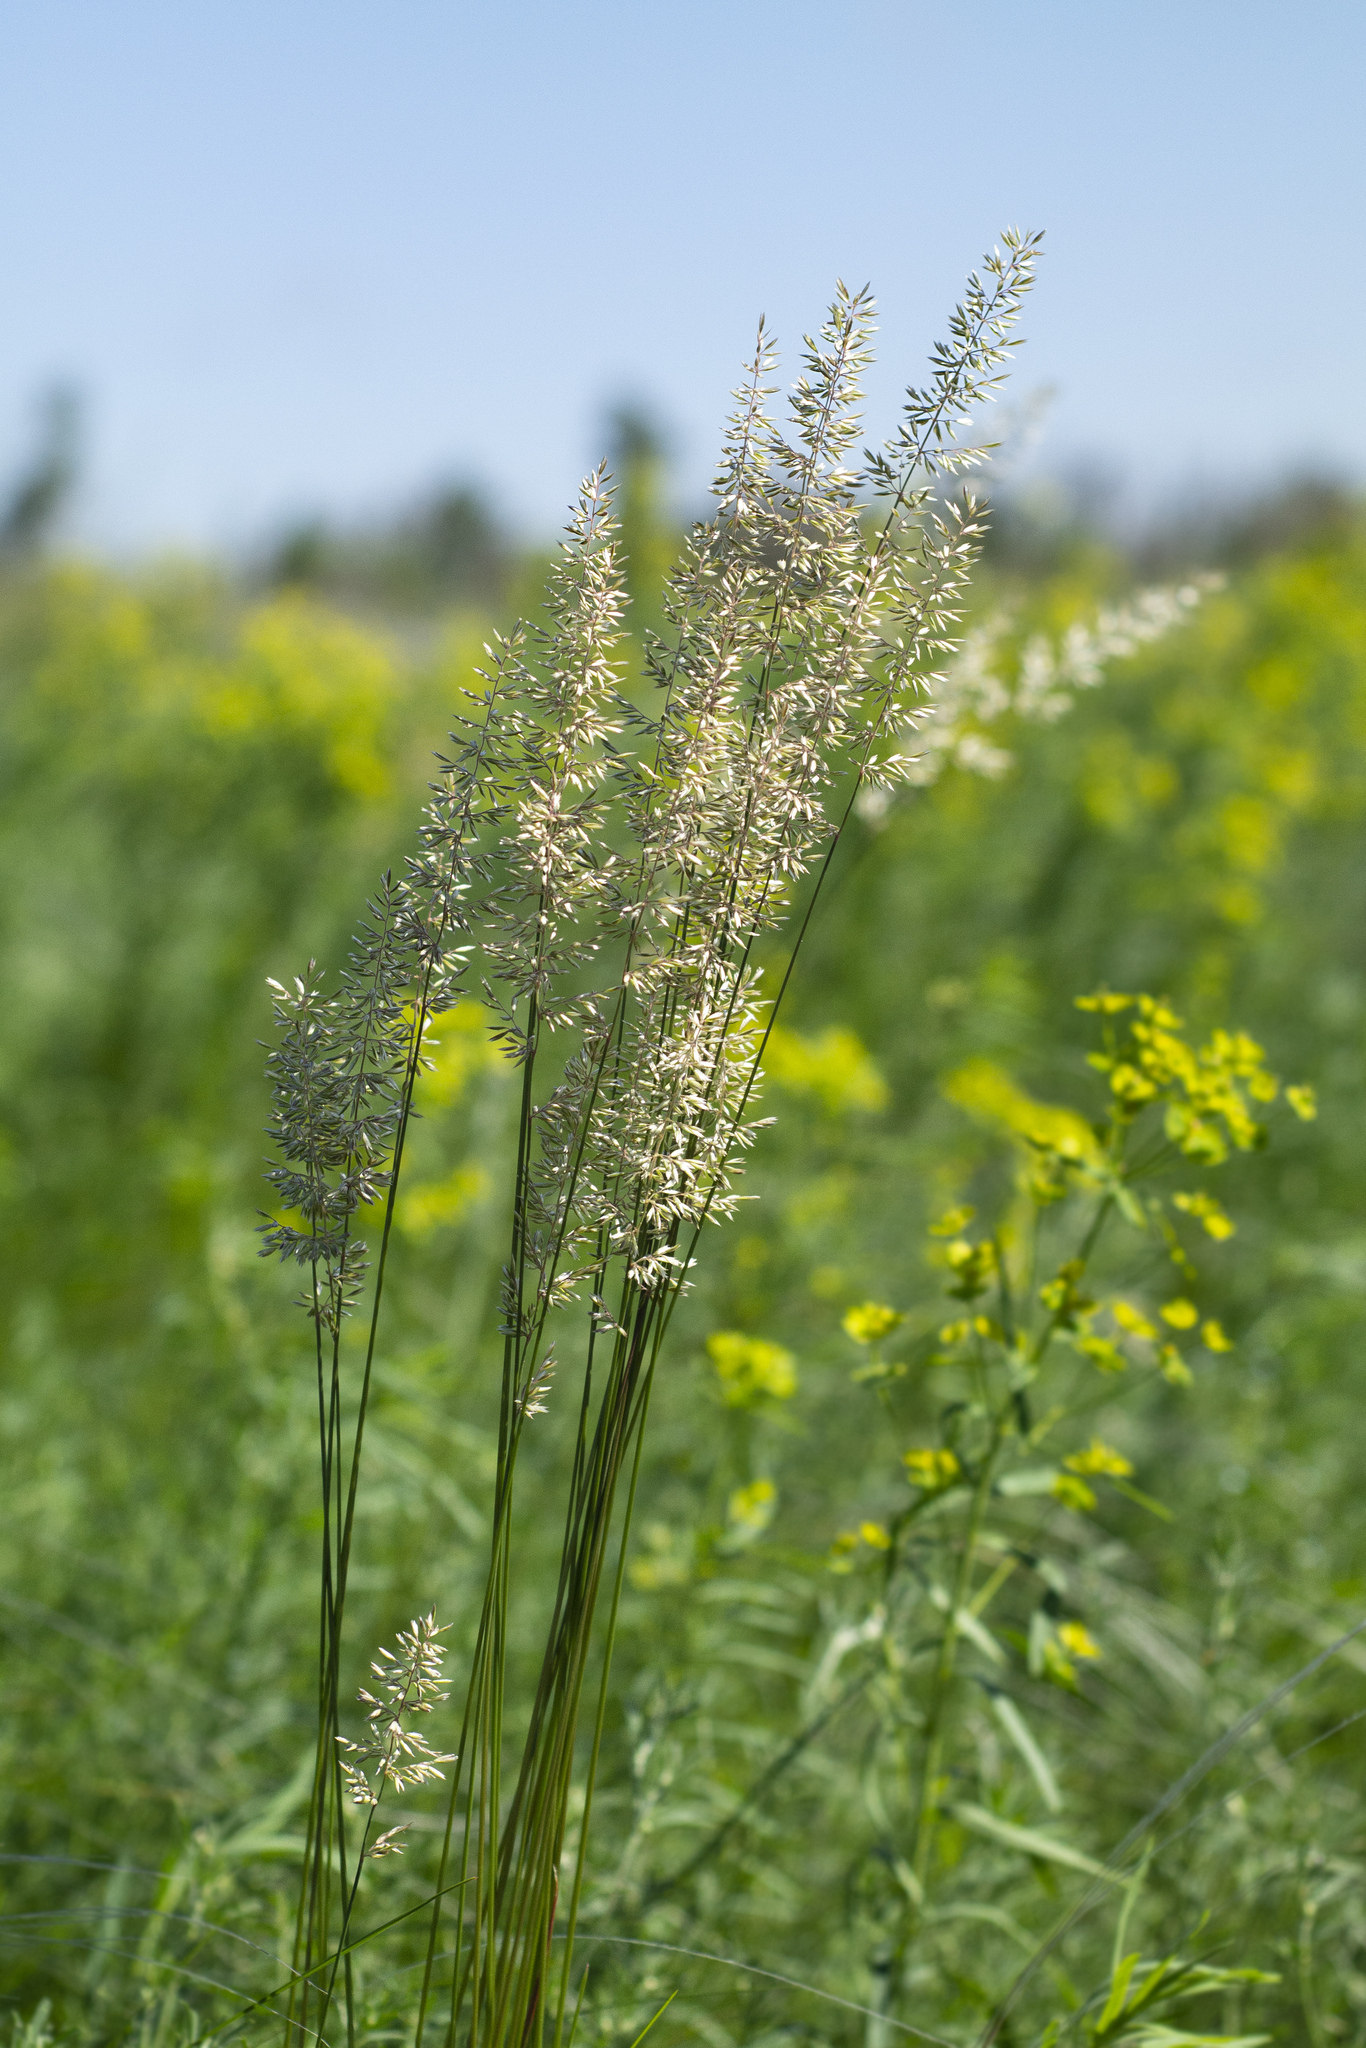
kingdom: Plantae
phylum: Tracheophyta
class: Liliopsida
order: Poales
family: Poaceae
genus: Koeleria
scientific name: Koeleria macrantha
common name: Crested hair-grass
